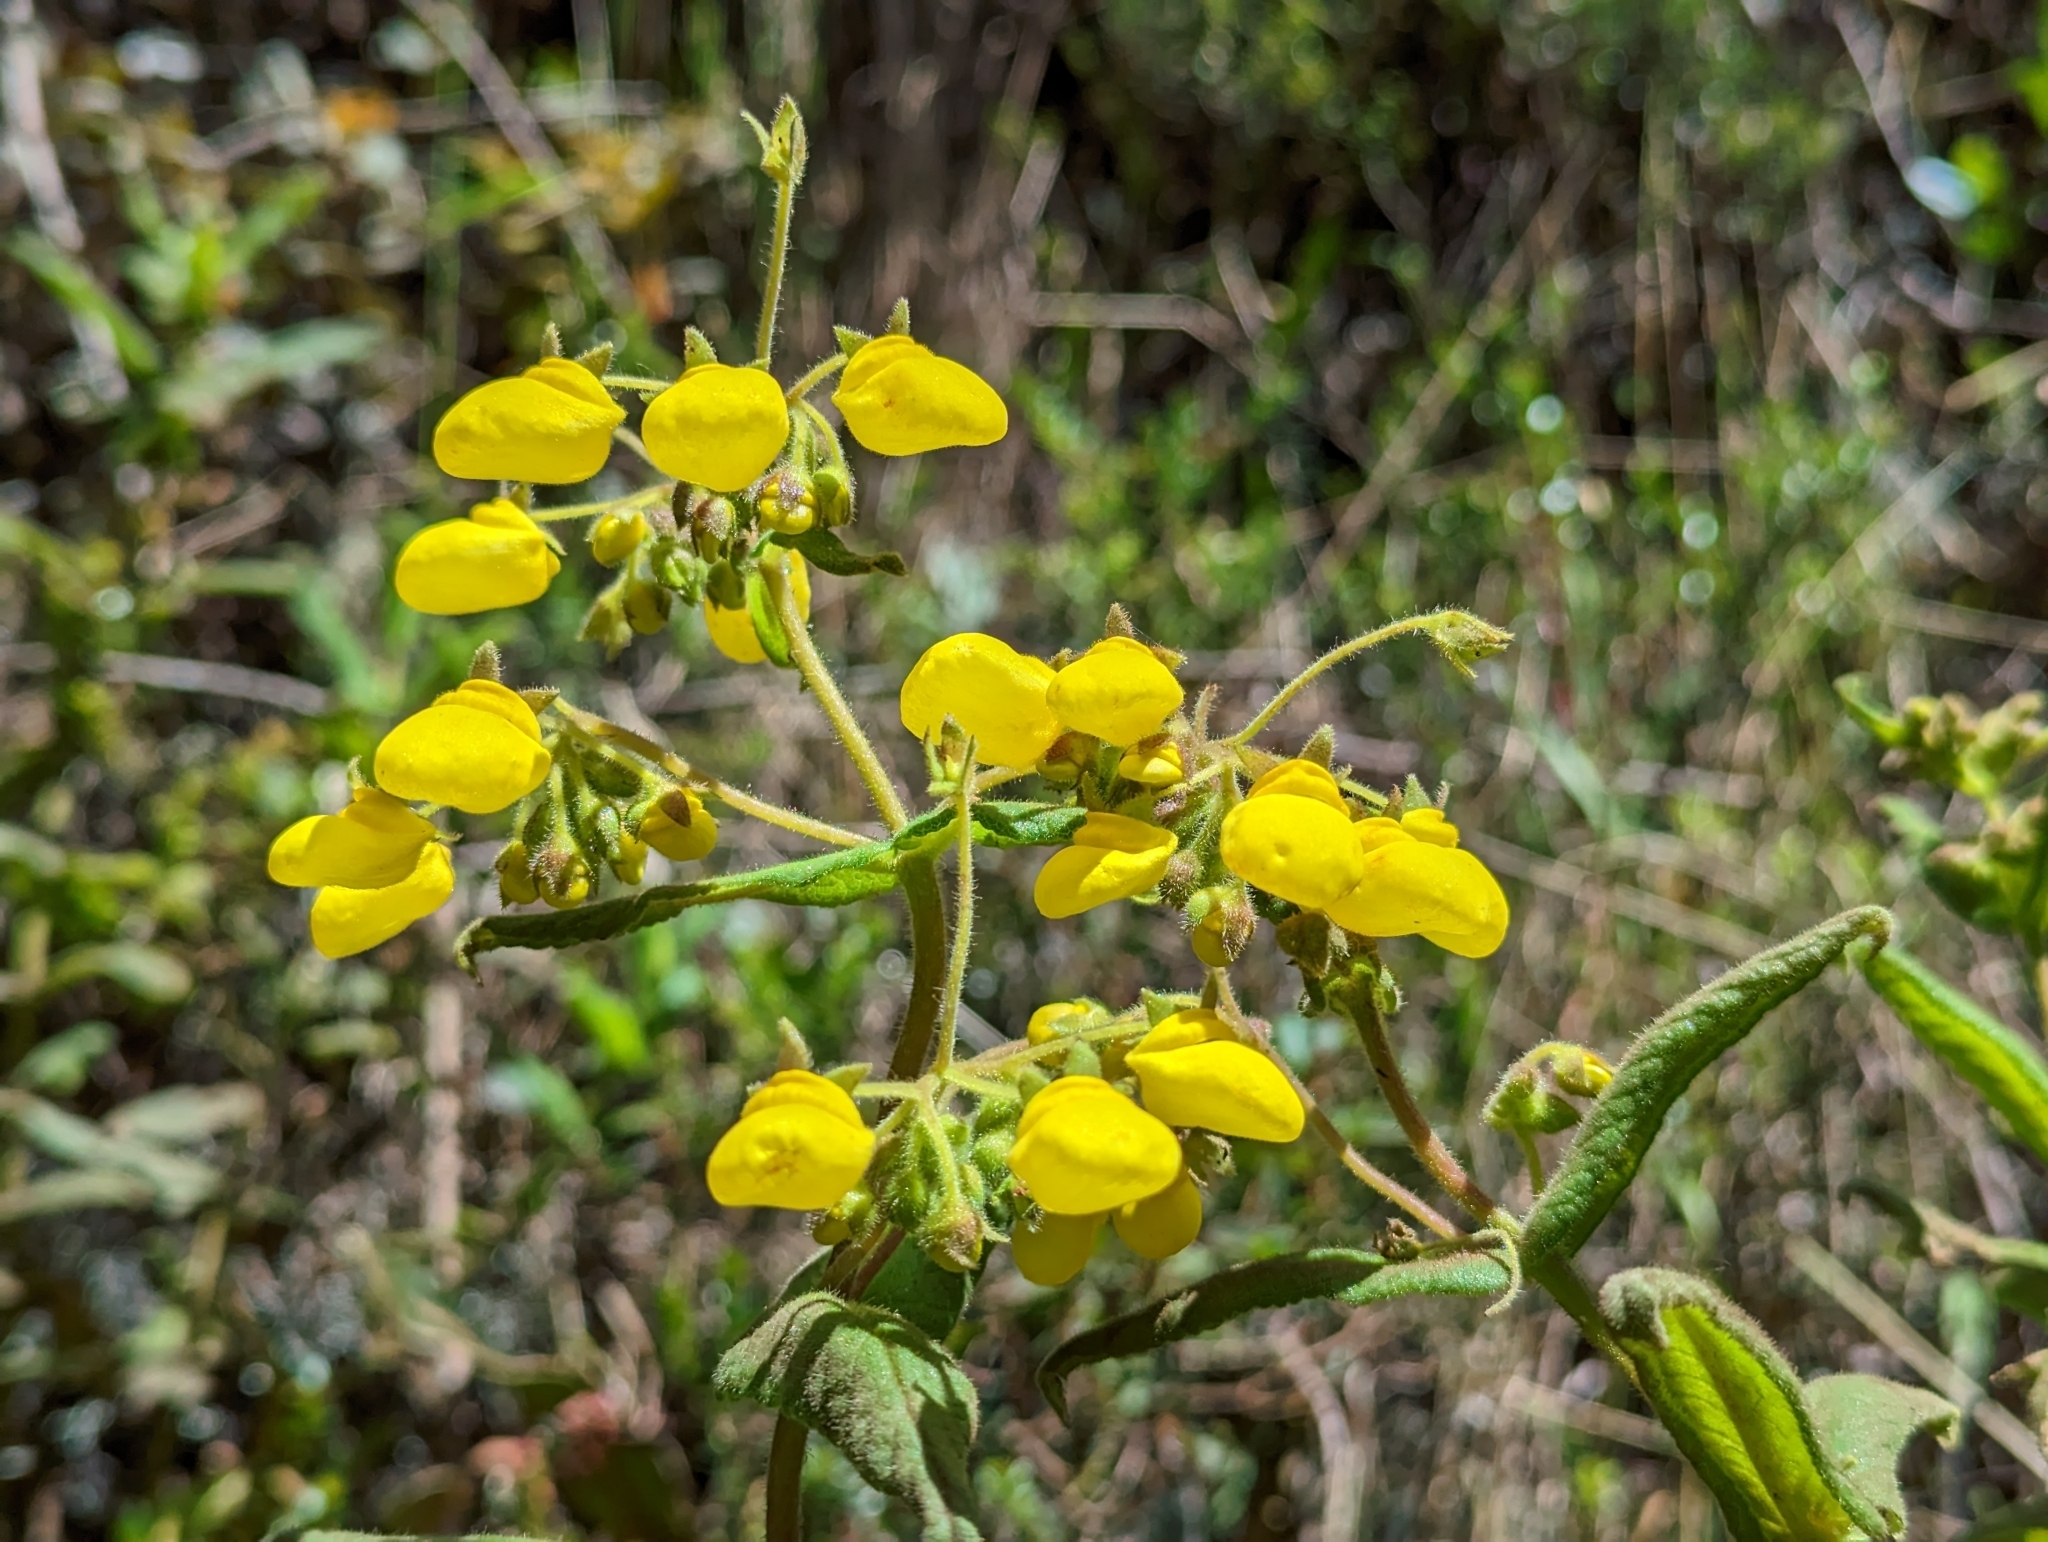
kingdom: Plantae
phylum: Tracheophyta
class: Magnoliopsida
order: Lamiales
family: Calceolariaceae
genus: Calceolaria
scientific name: Calceolaria crenata
